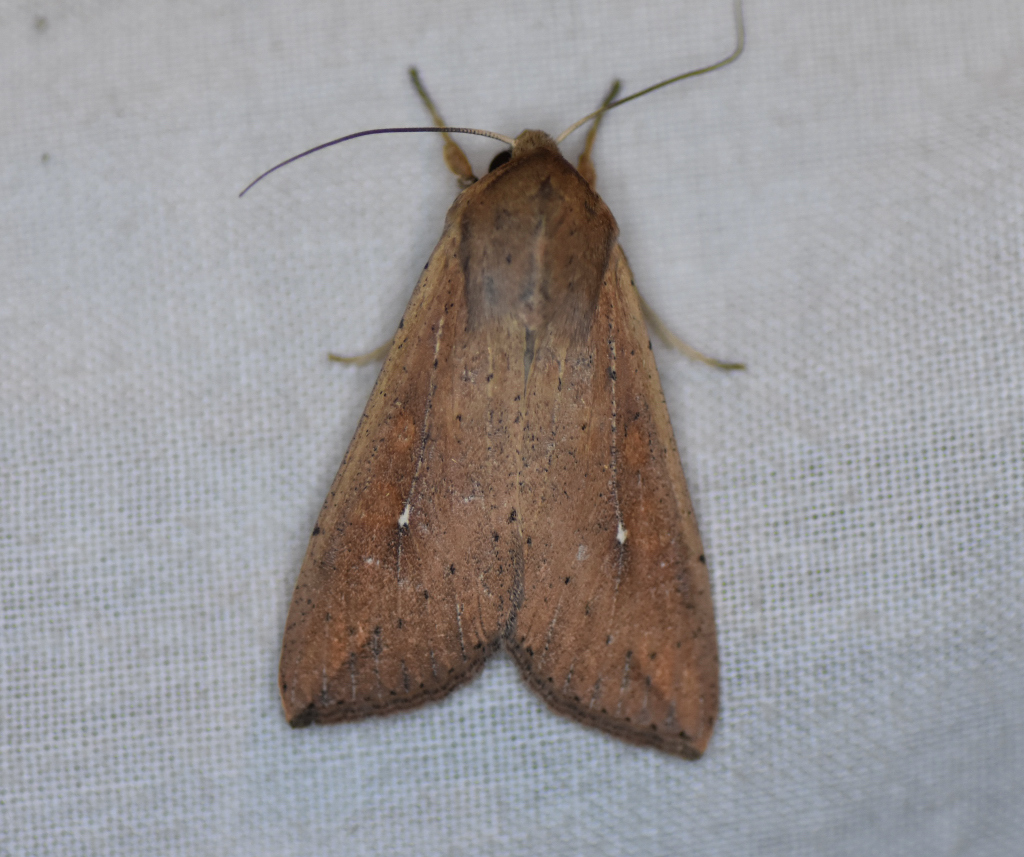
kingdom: Animalia
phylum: Arthropoda
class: Insecta
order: Lepidoptera
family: Noctuidae
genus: Mythimna
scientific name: Mythimna unipuncta
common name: White-speck
